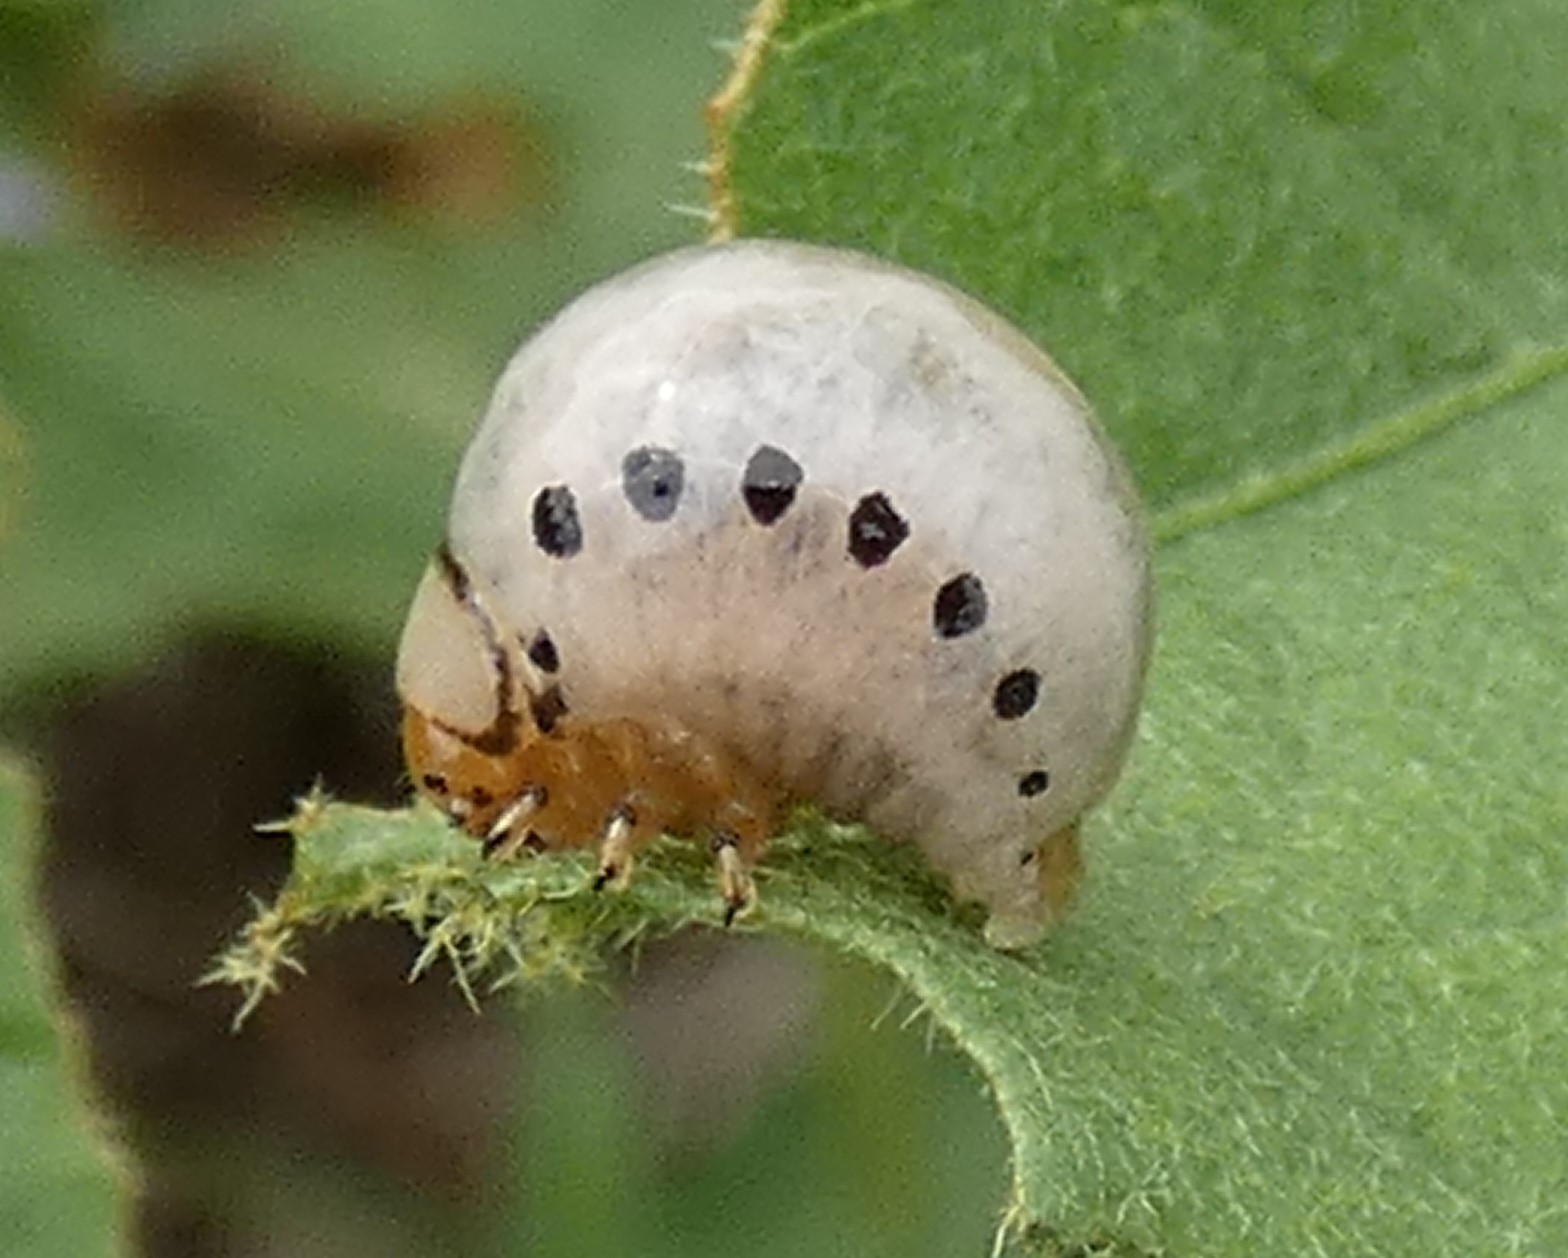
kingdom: Animalia
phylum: Arthropoda
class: Insecta
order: Coleoptera
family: Chrysomelidae
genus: Leptinotarsa
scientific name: Leptinotarsa juncta
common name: False potato beetle
